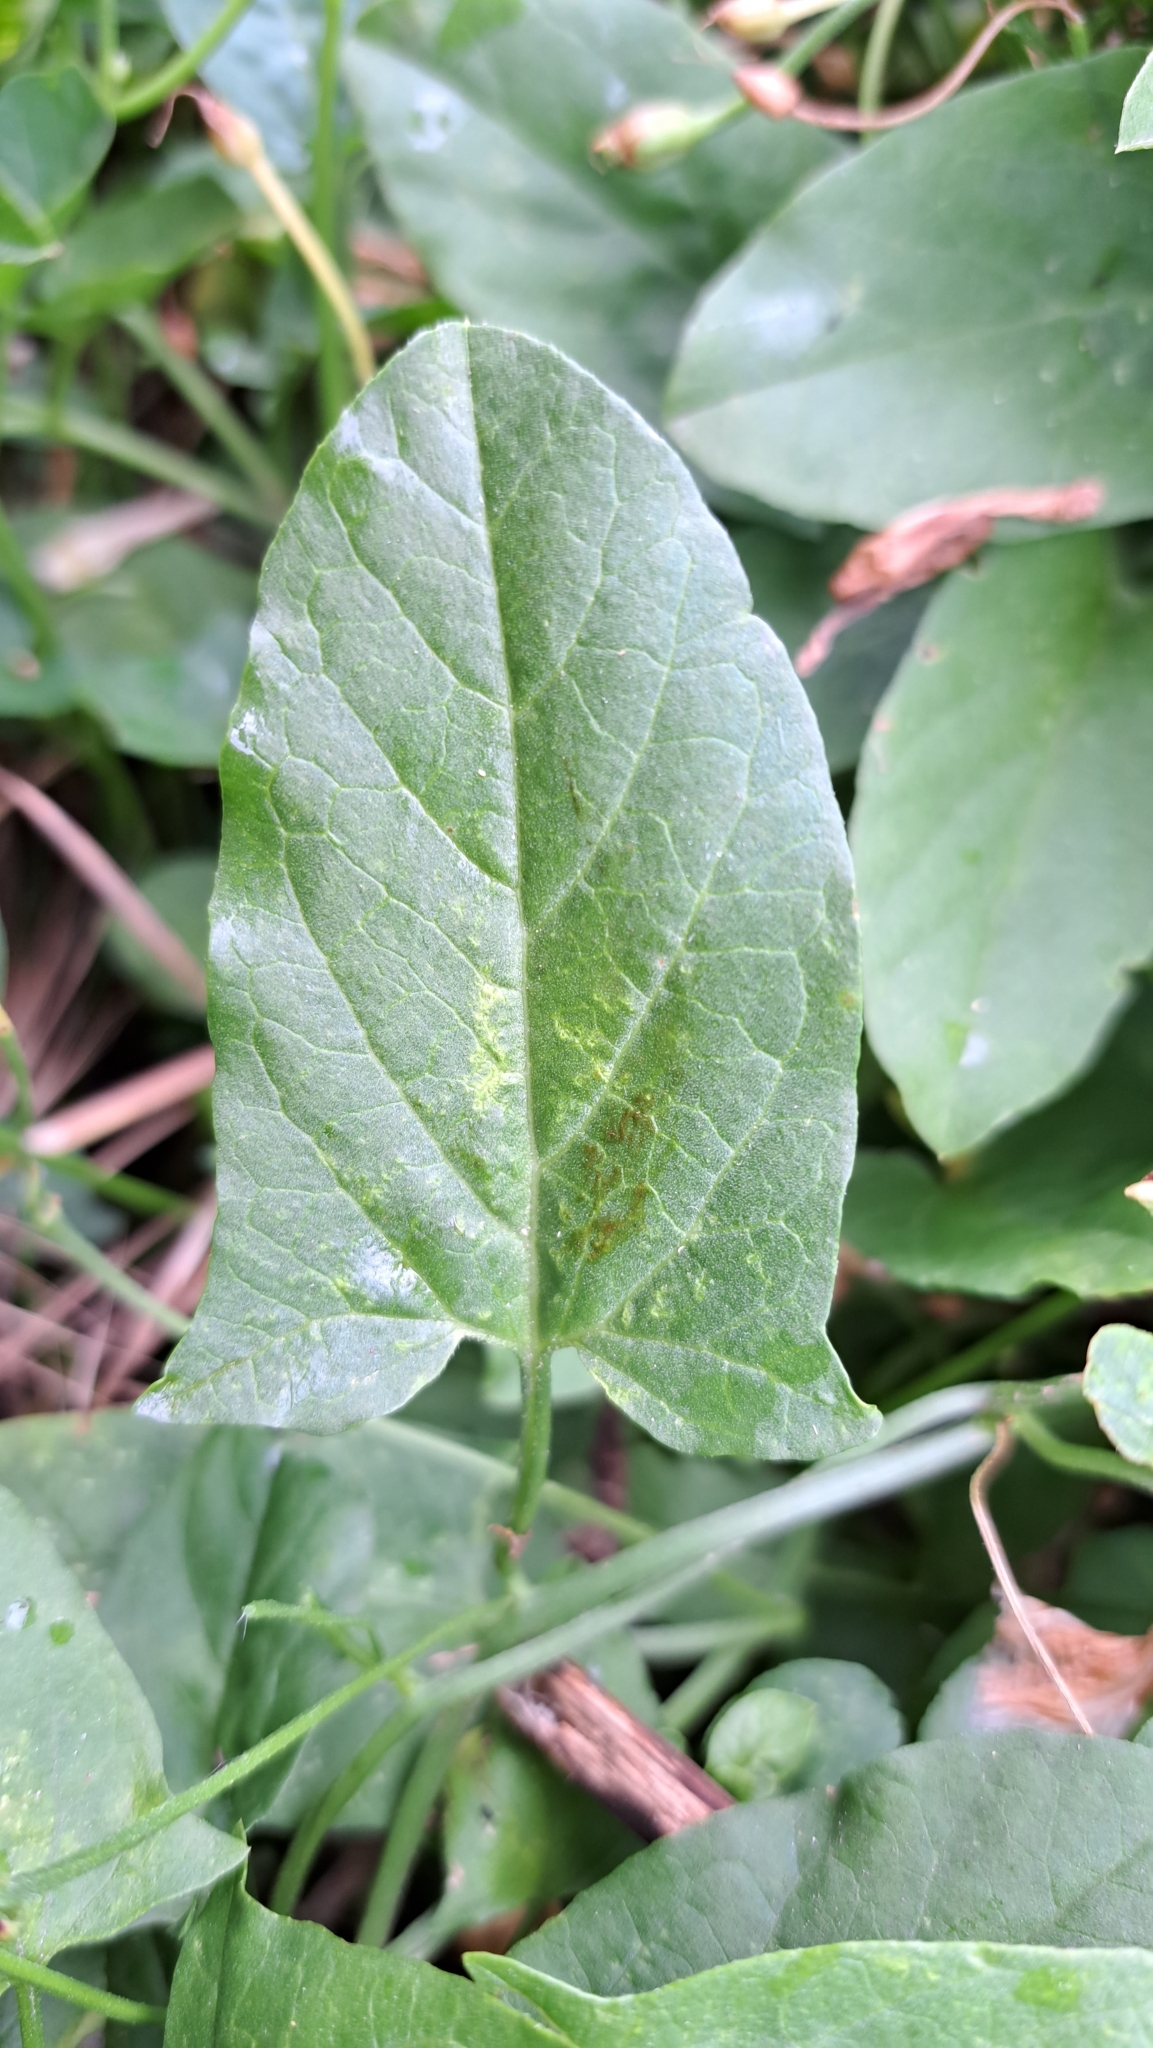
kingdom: Plantae
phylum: Tracheophyta
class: Magnoliopsida
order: Solanales
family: Convolvulaceae
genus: Convolvulus
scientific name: Convolvulus arvensis
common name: Field bindweed
